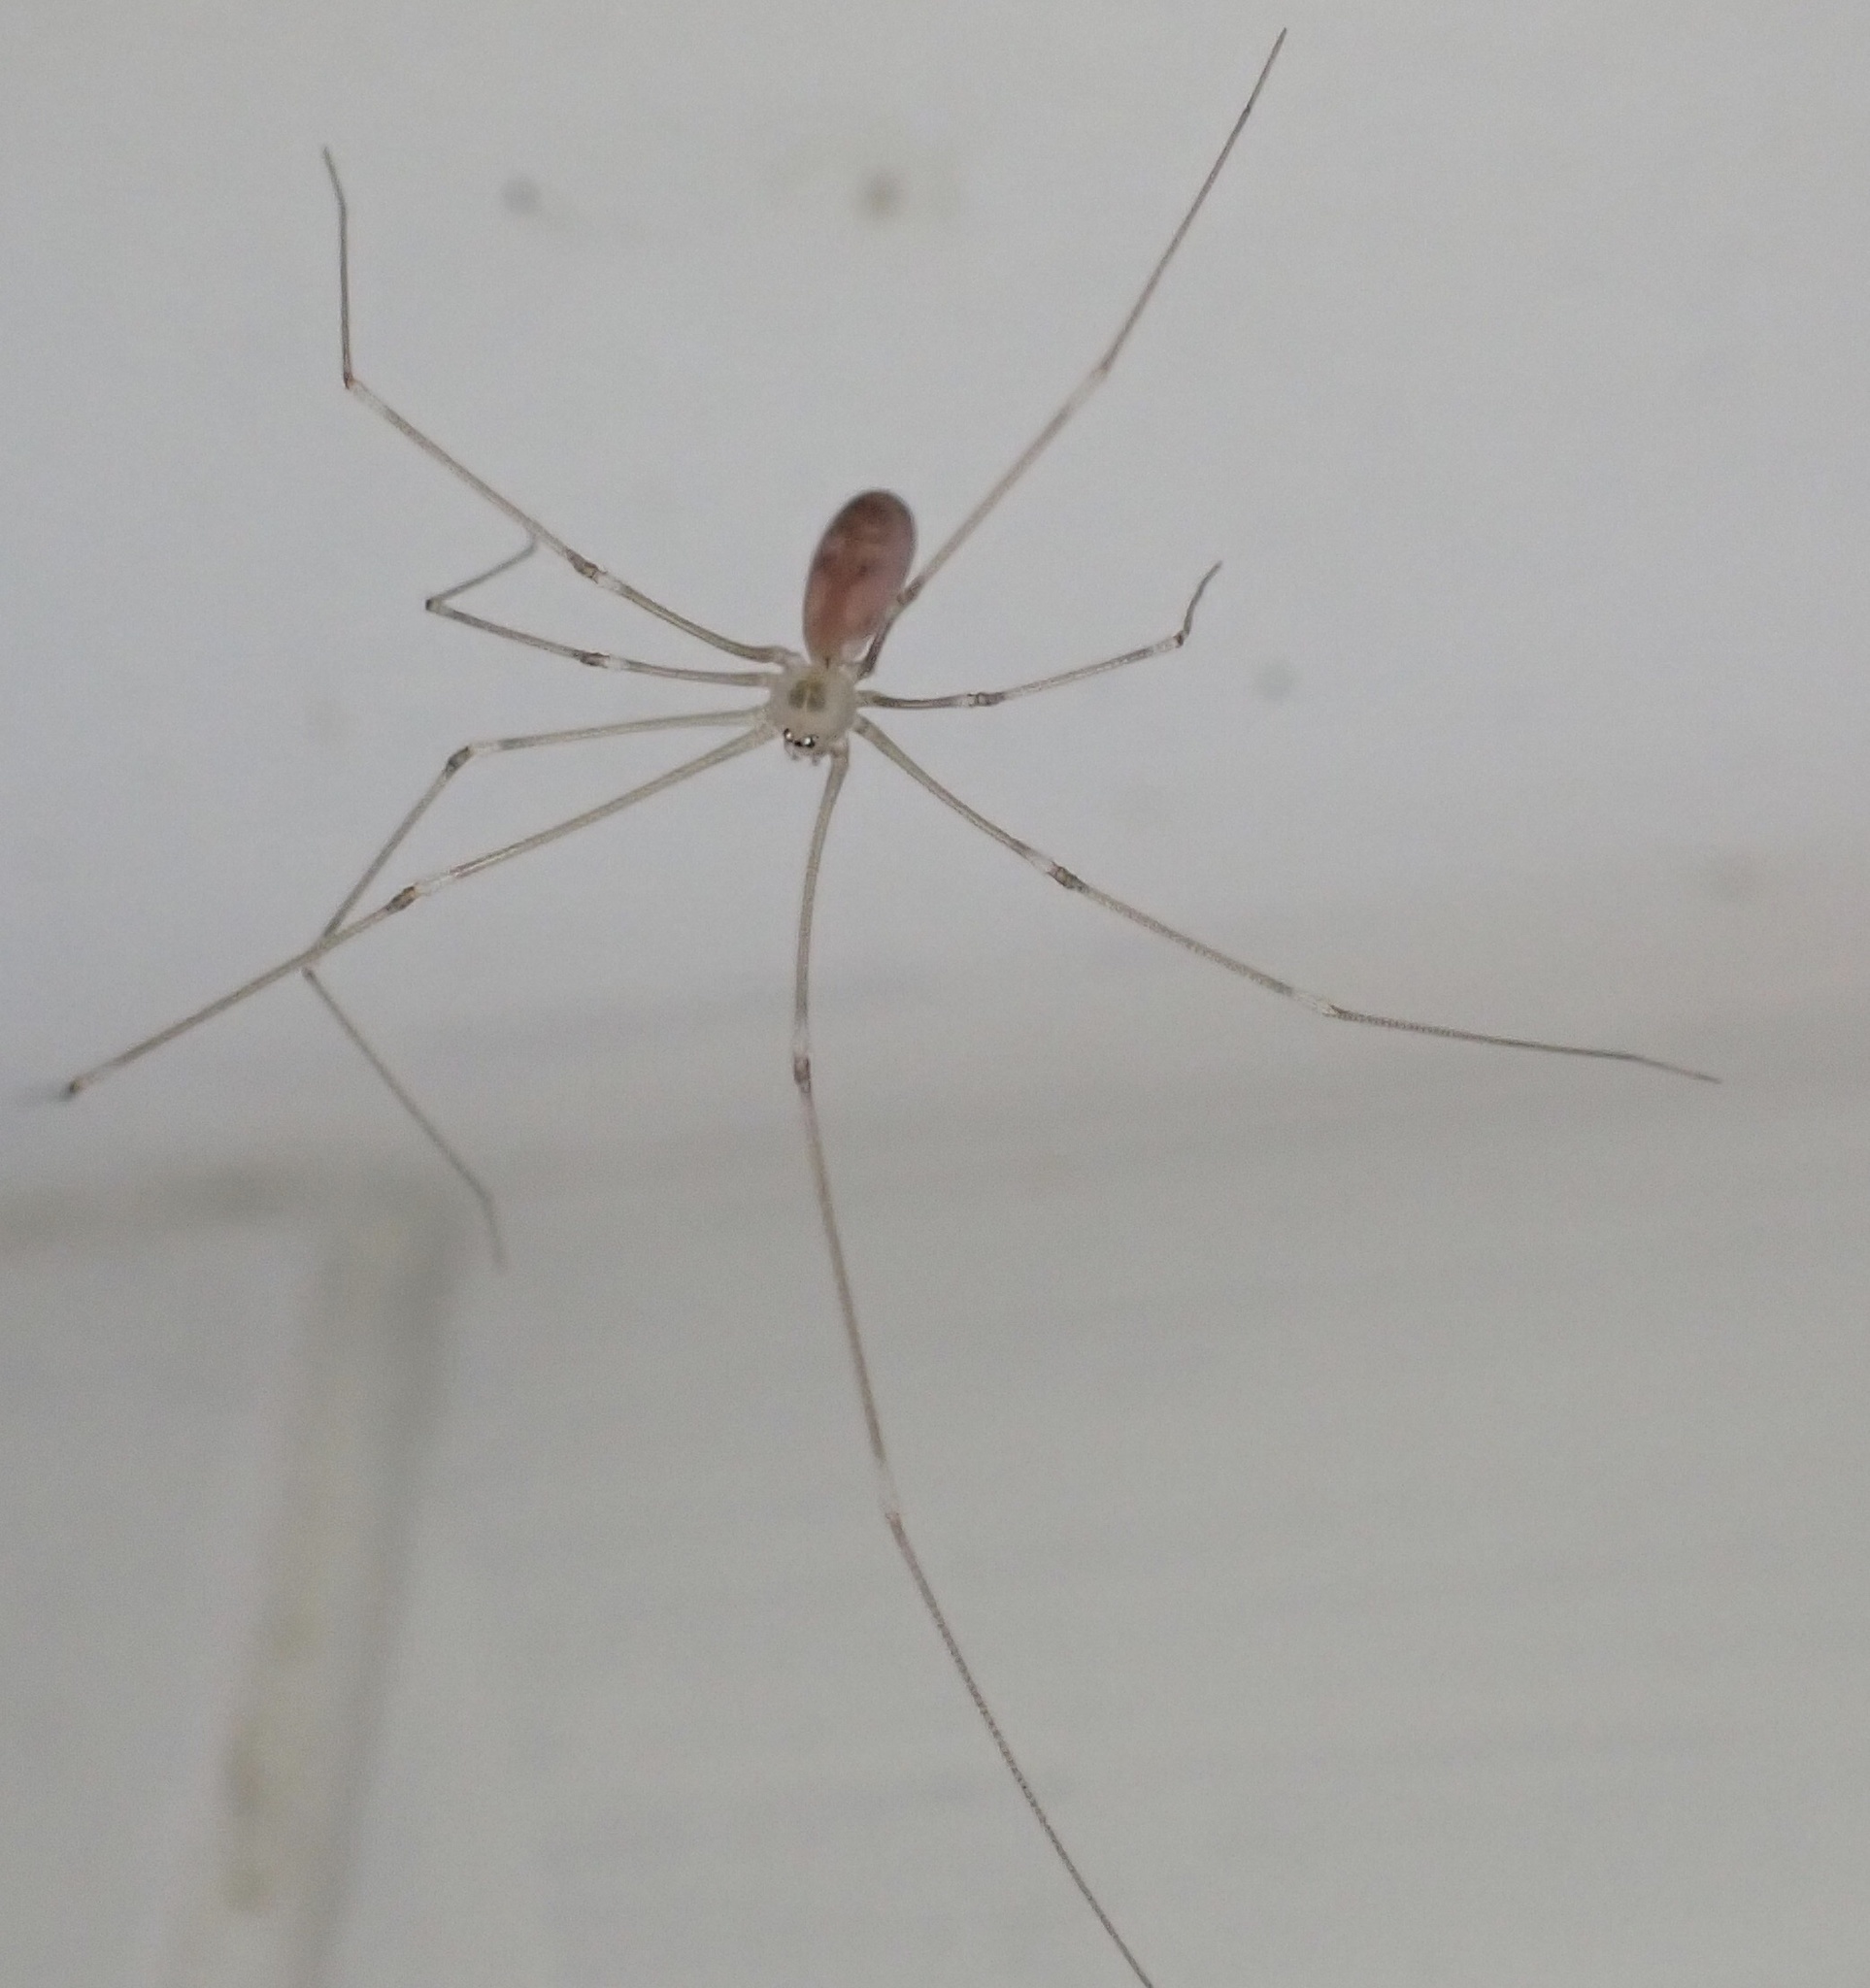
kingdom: Animalia
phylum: Arthropoda
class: Arachnida
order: Araneae
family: Pholcidae
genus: Pholcus
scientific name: Pholcus phalangioides
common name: Longbodied cellar spider
